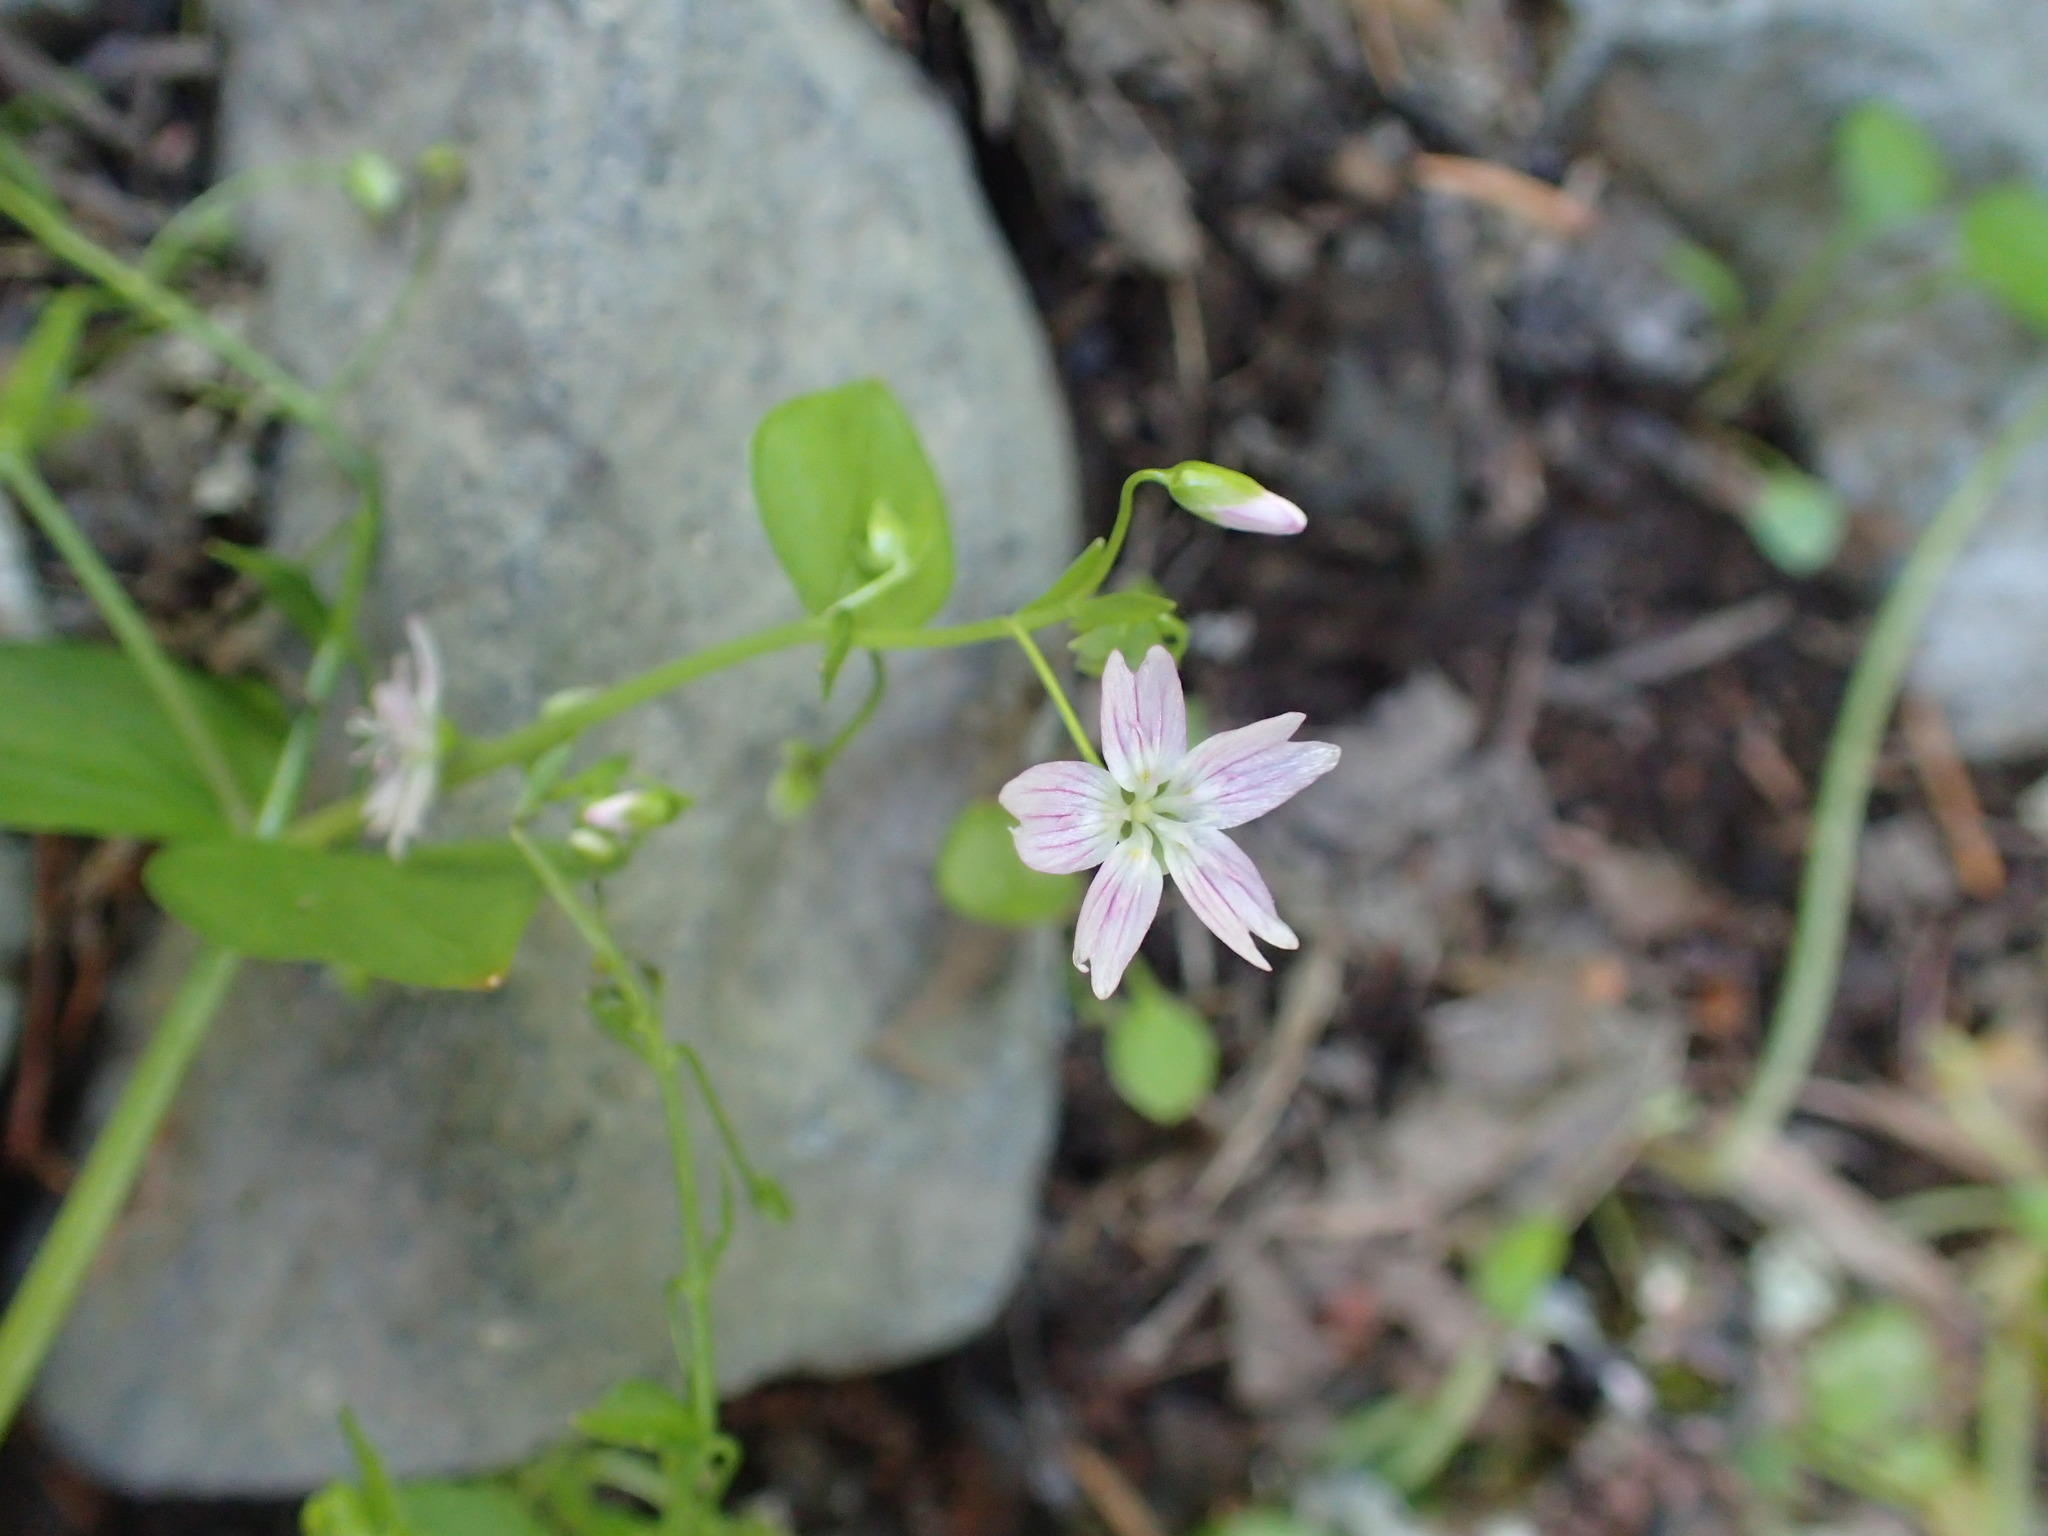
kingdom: Plantae
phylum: Tracheophyta
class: Magnoliopsida
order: Caryophyllales
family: Montiaceae
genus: Claytonia
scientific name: Claytonia sibirica
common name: Pink purslane
